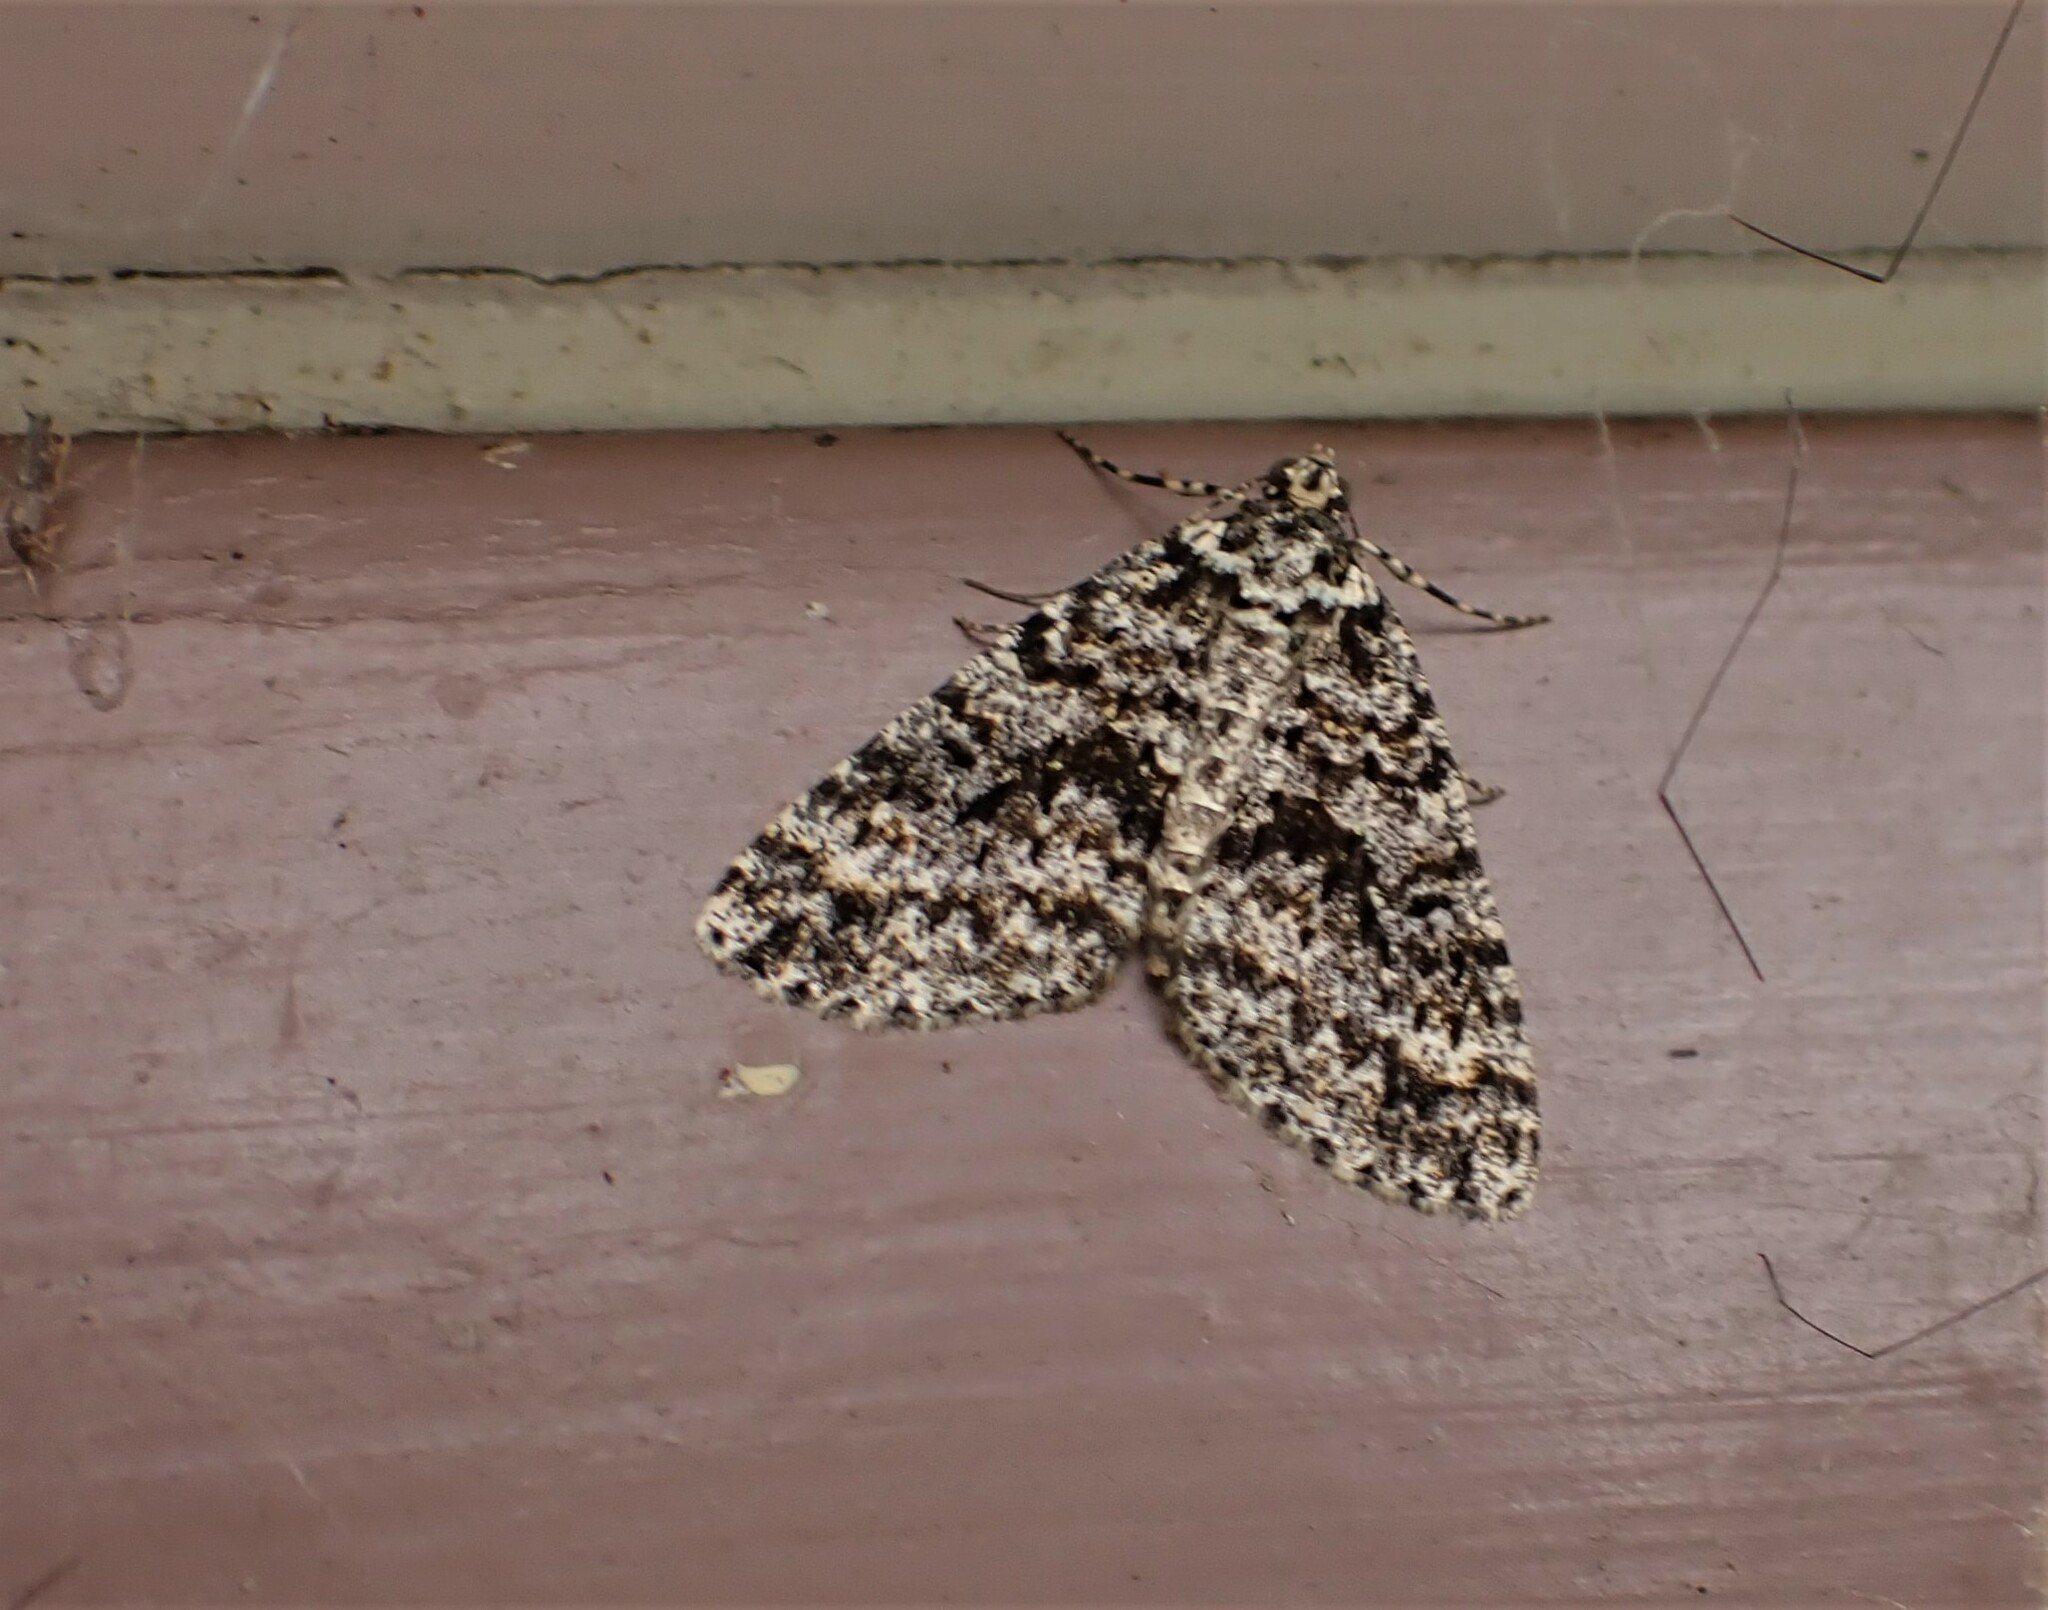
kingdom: Animalia
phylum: Arthropoda
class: Insecta
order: Lepidoptera
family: Geometridae
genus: Pseudocoremia
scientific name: Pseudocoremia monacha
